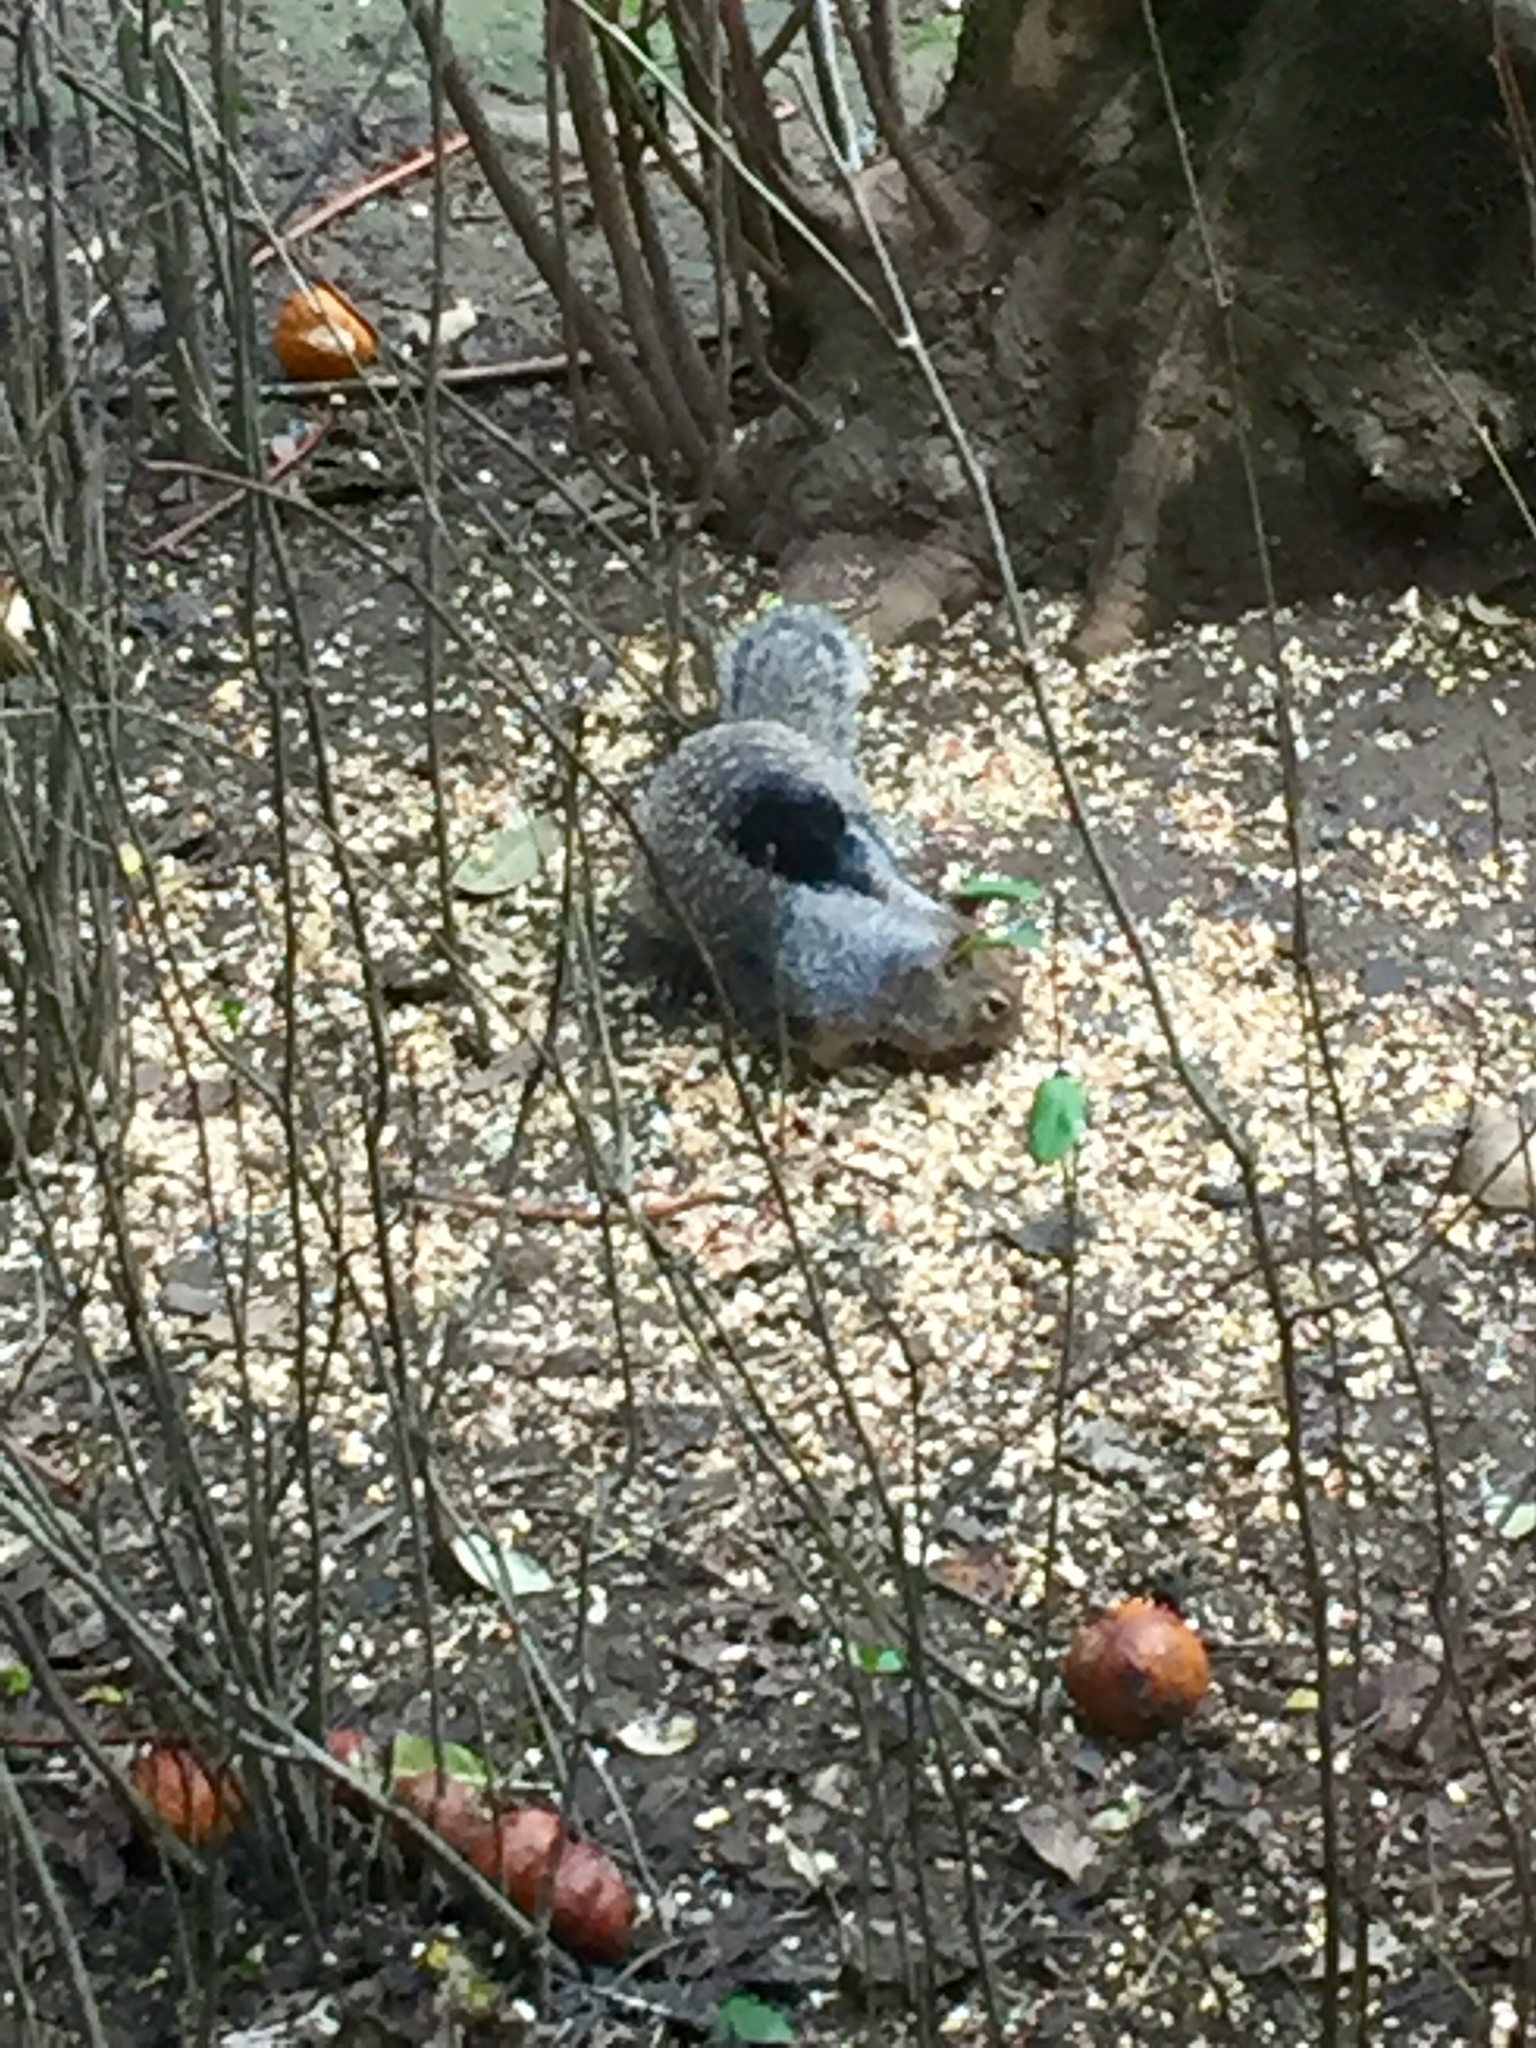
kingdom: Animalia
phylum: Chordata
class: Mammalia
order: Rodentia
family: Sciuridae
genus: Otospermophilus
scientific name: Otospermophilus beecheyi
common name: California ground squirrel
